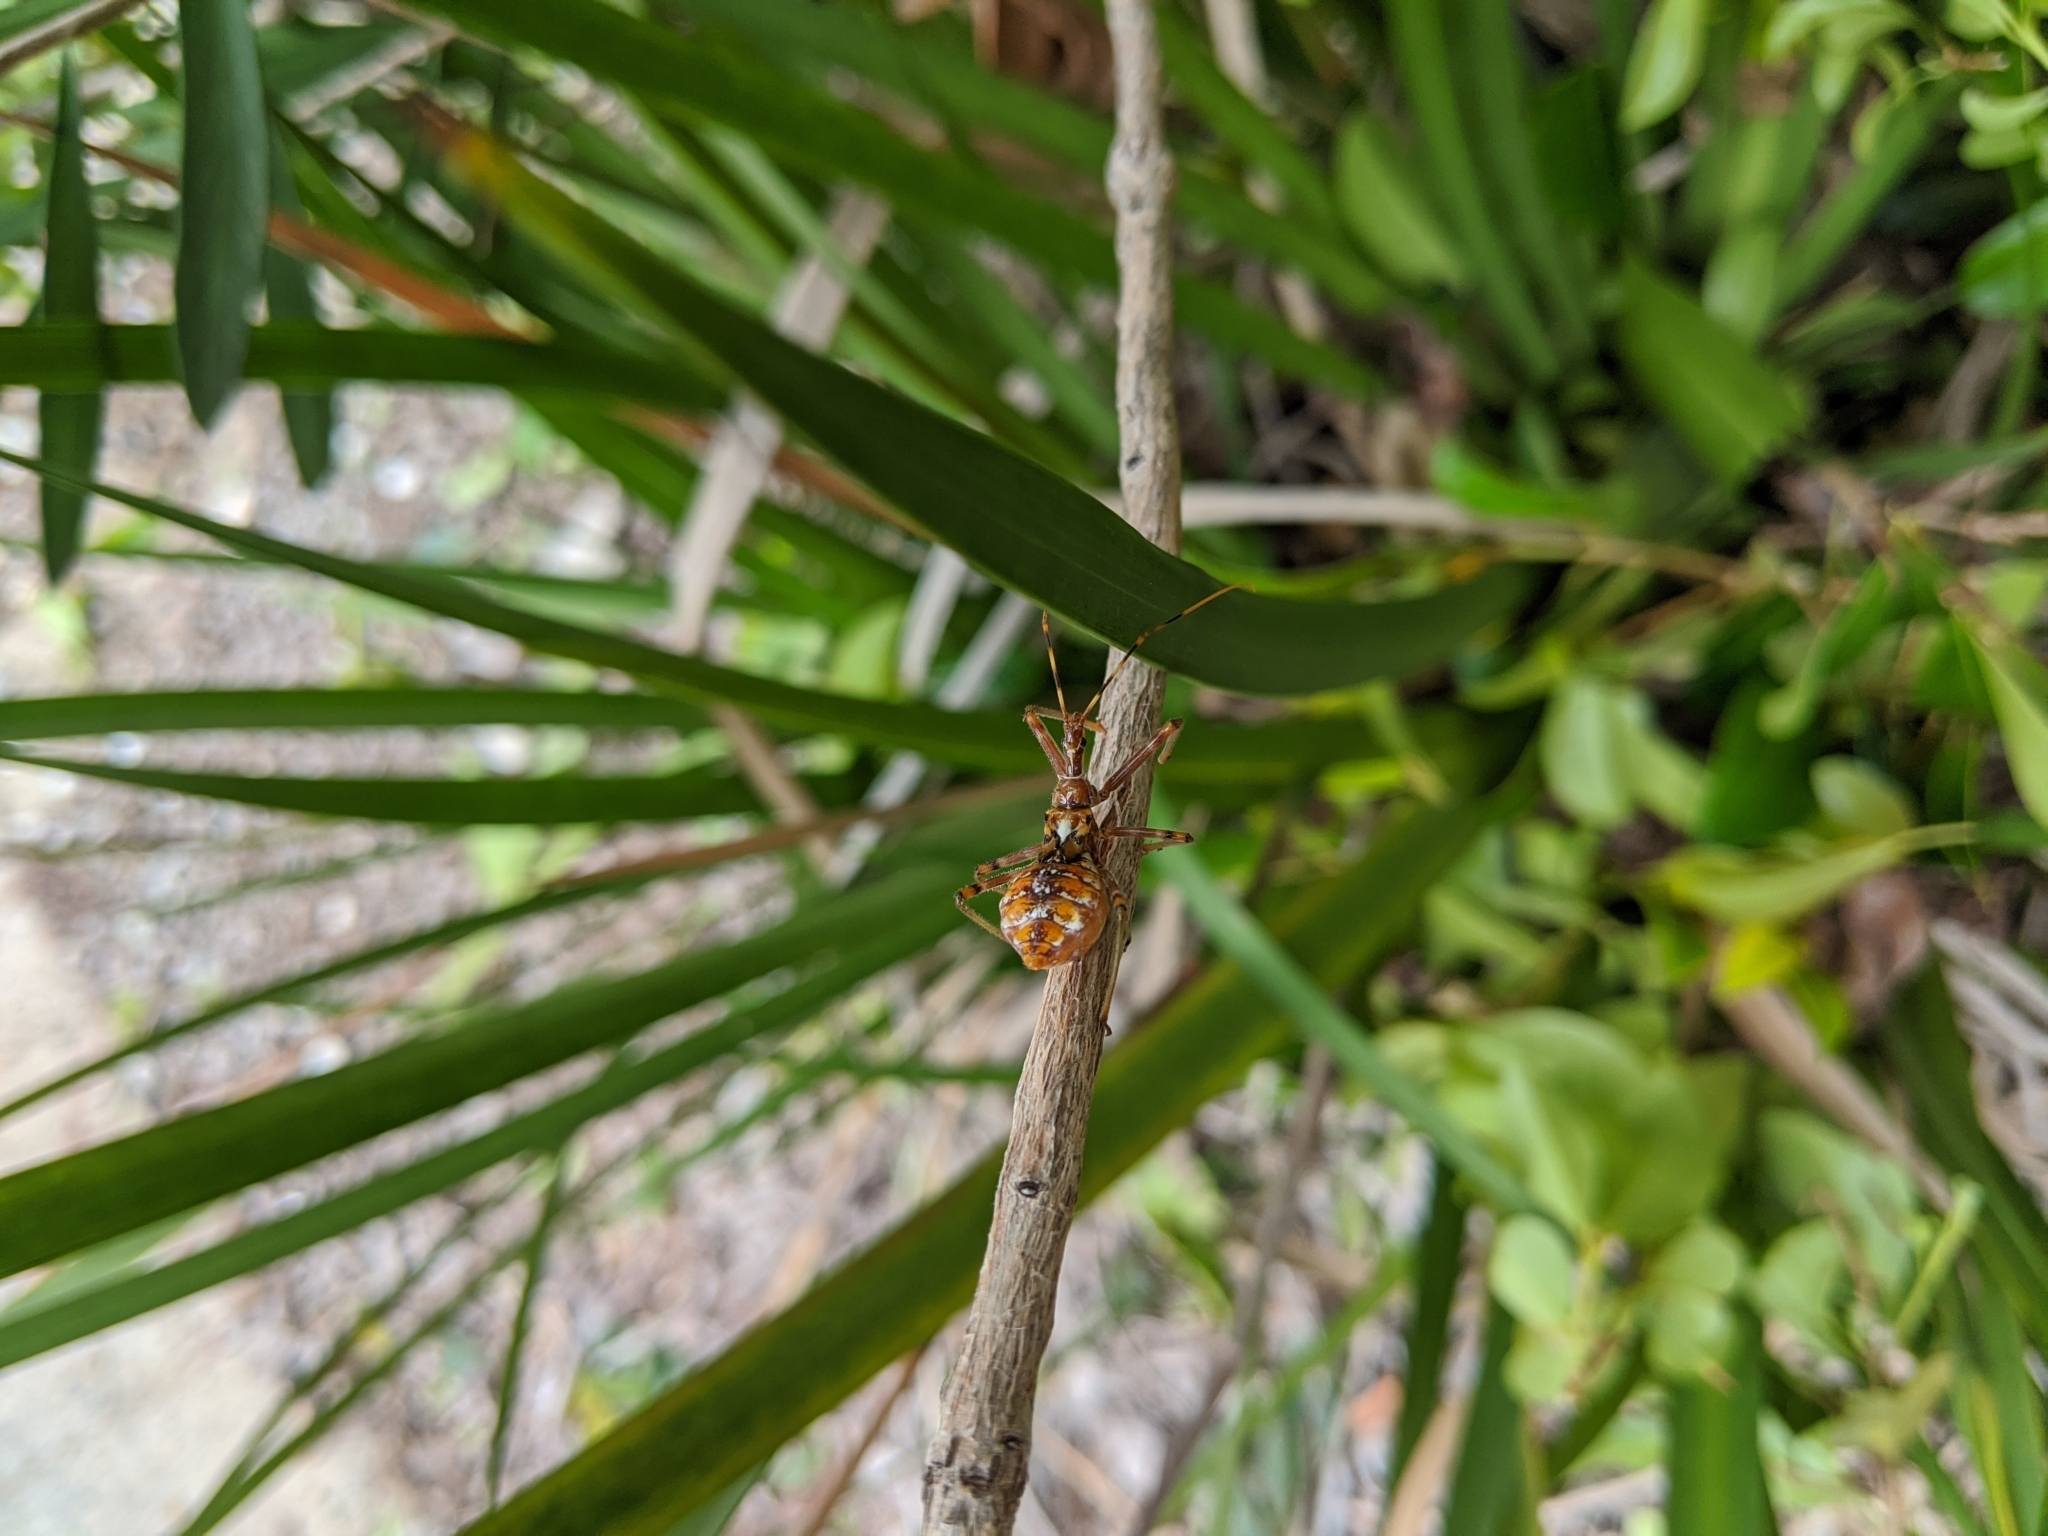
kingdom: Animalia
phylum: Arthropoda
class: Insecta
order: Hemiptera
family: Reduviidae
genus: Pristhesancus
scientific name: Pristhesancus plagipennis
